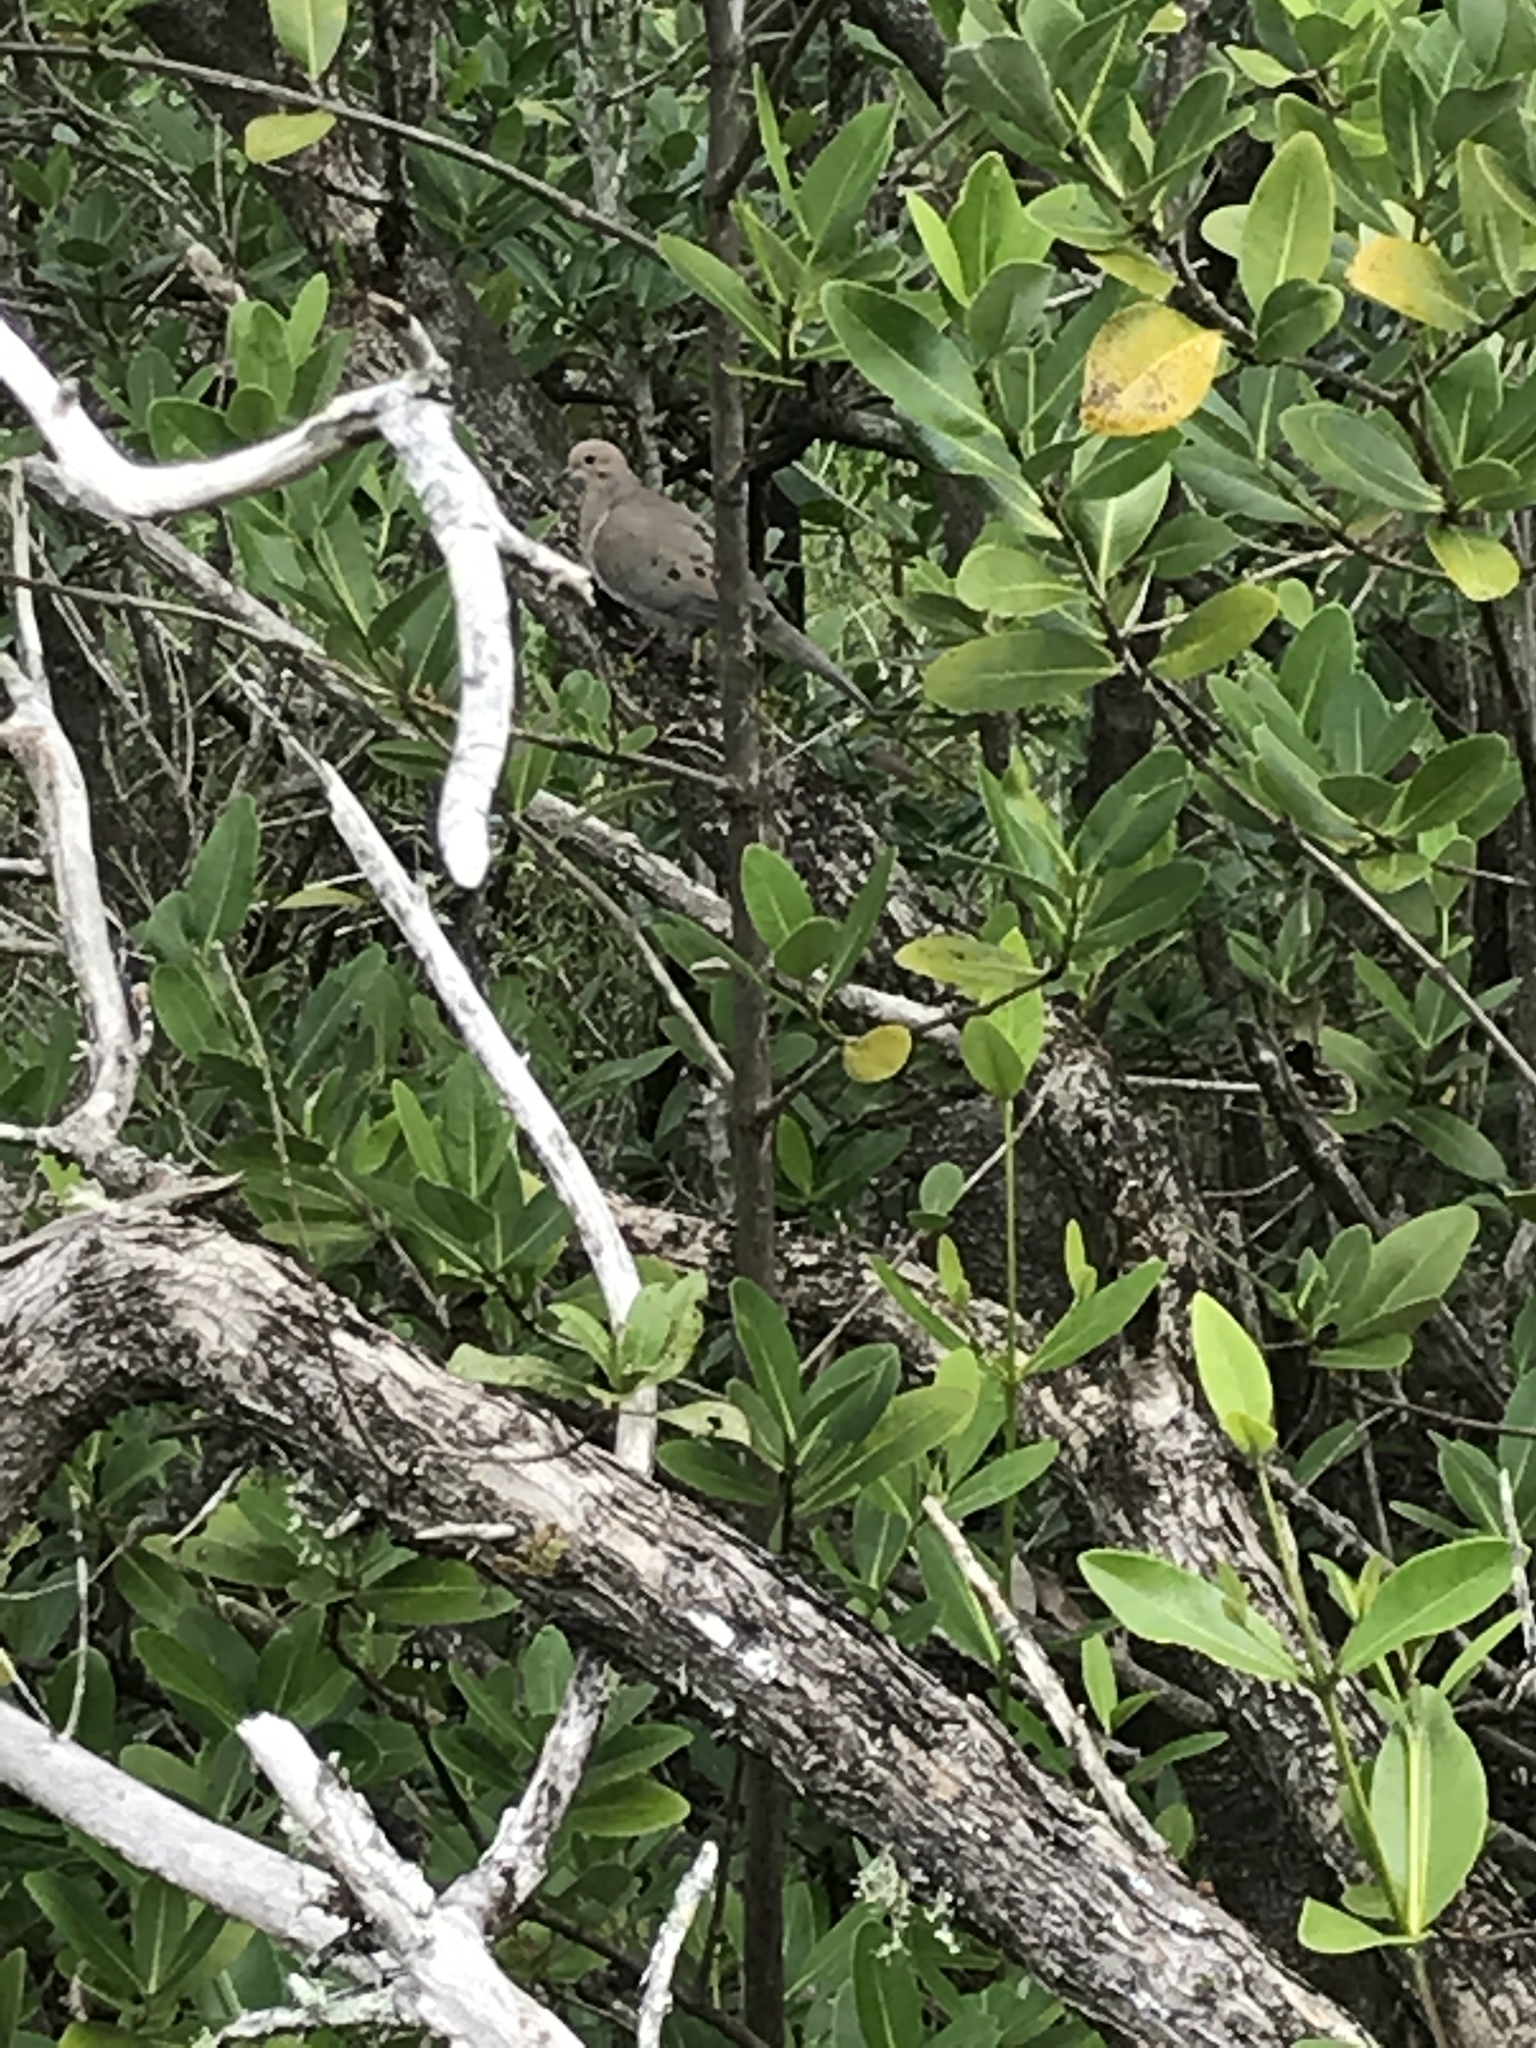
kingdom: Animalia
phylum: Chordata
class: Aves
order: Columbiformes
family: Columbidae
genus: Zenaida
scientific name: Zenaida macroura
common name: Mourning dove
